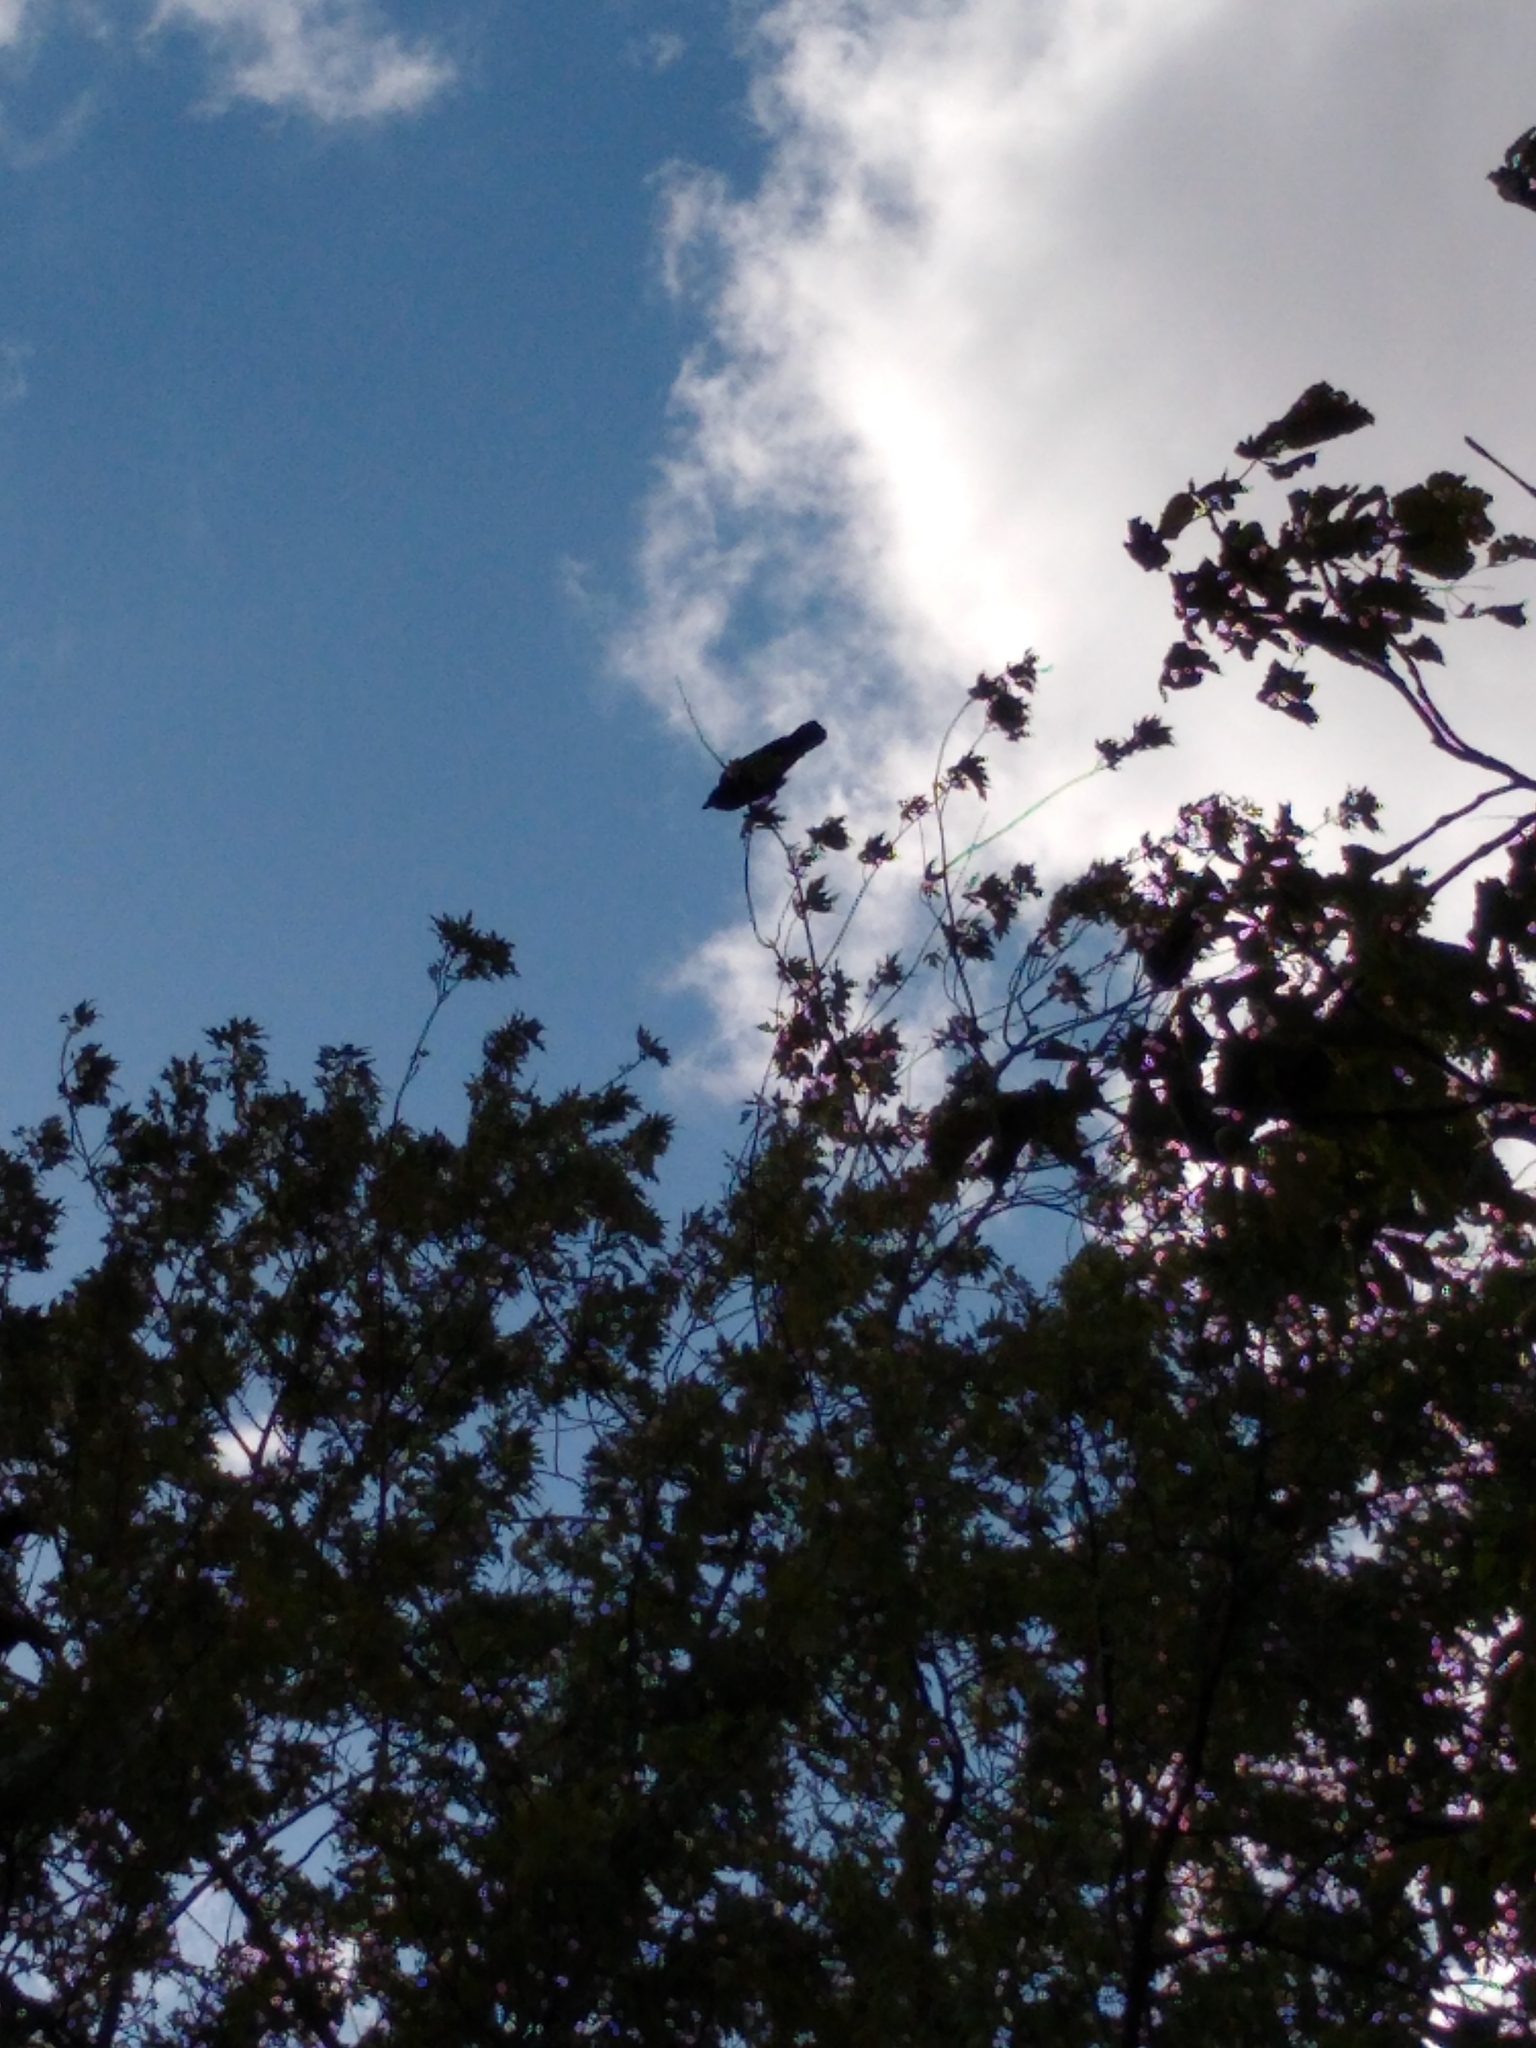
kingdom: Animalia
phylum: Chordata
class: Aves
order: Passeriformes
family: Corvidae
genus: Corvus
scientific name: Corvus corone
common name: Carrion crow
